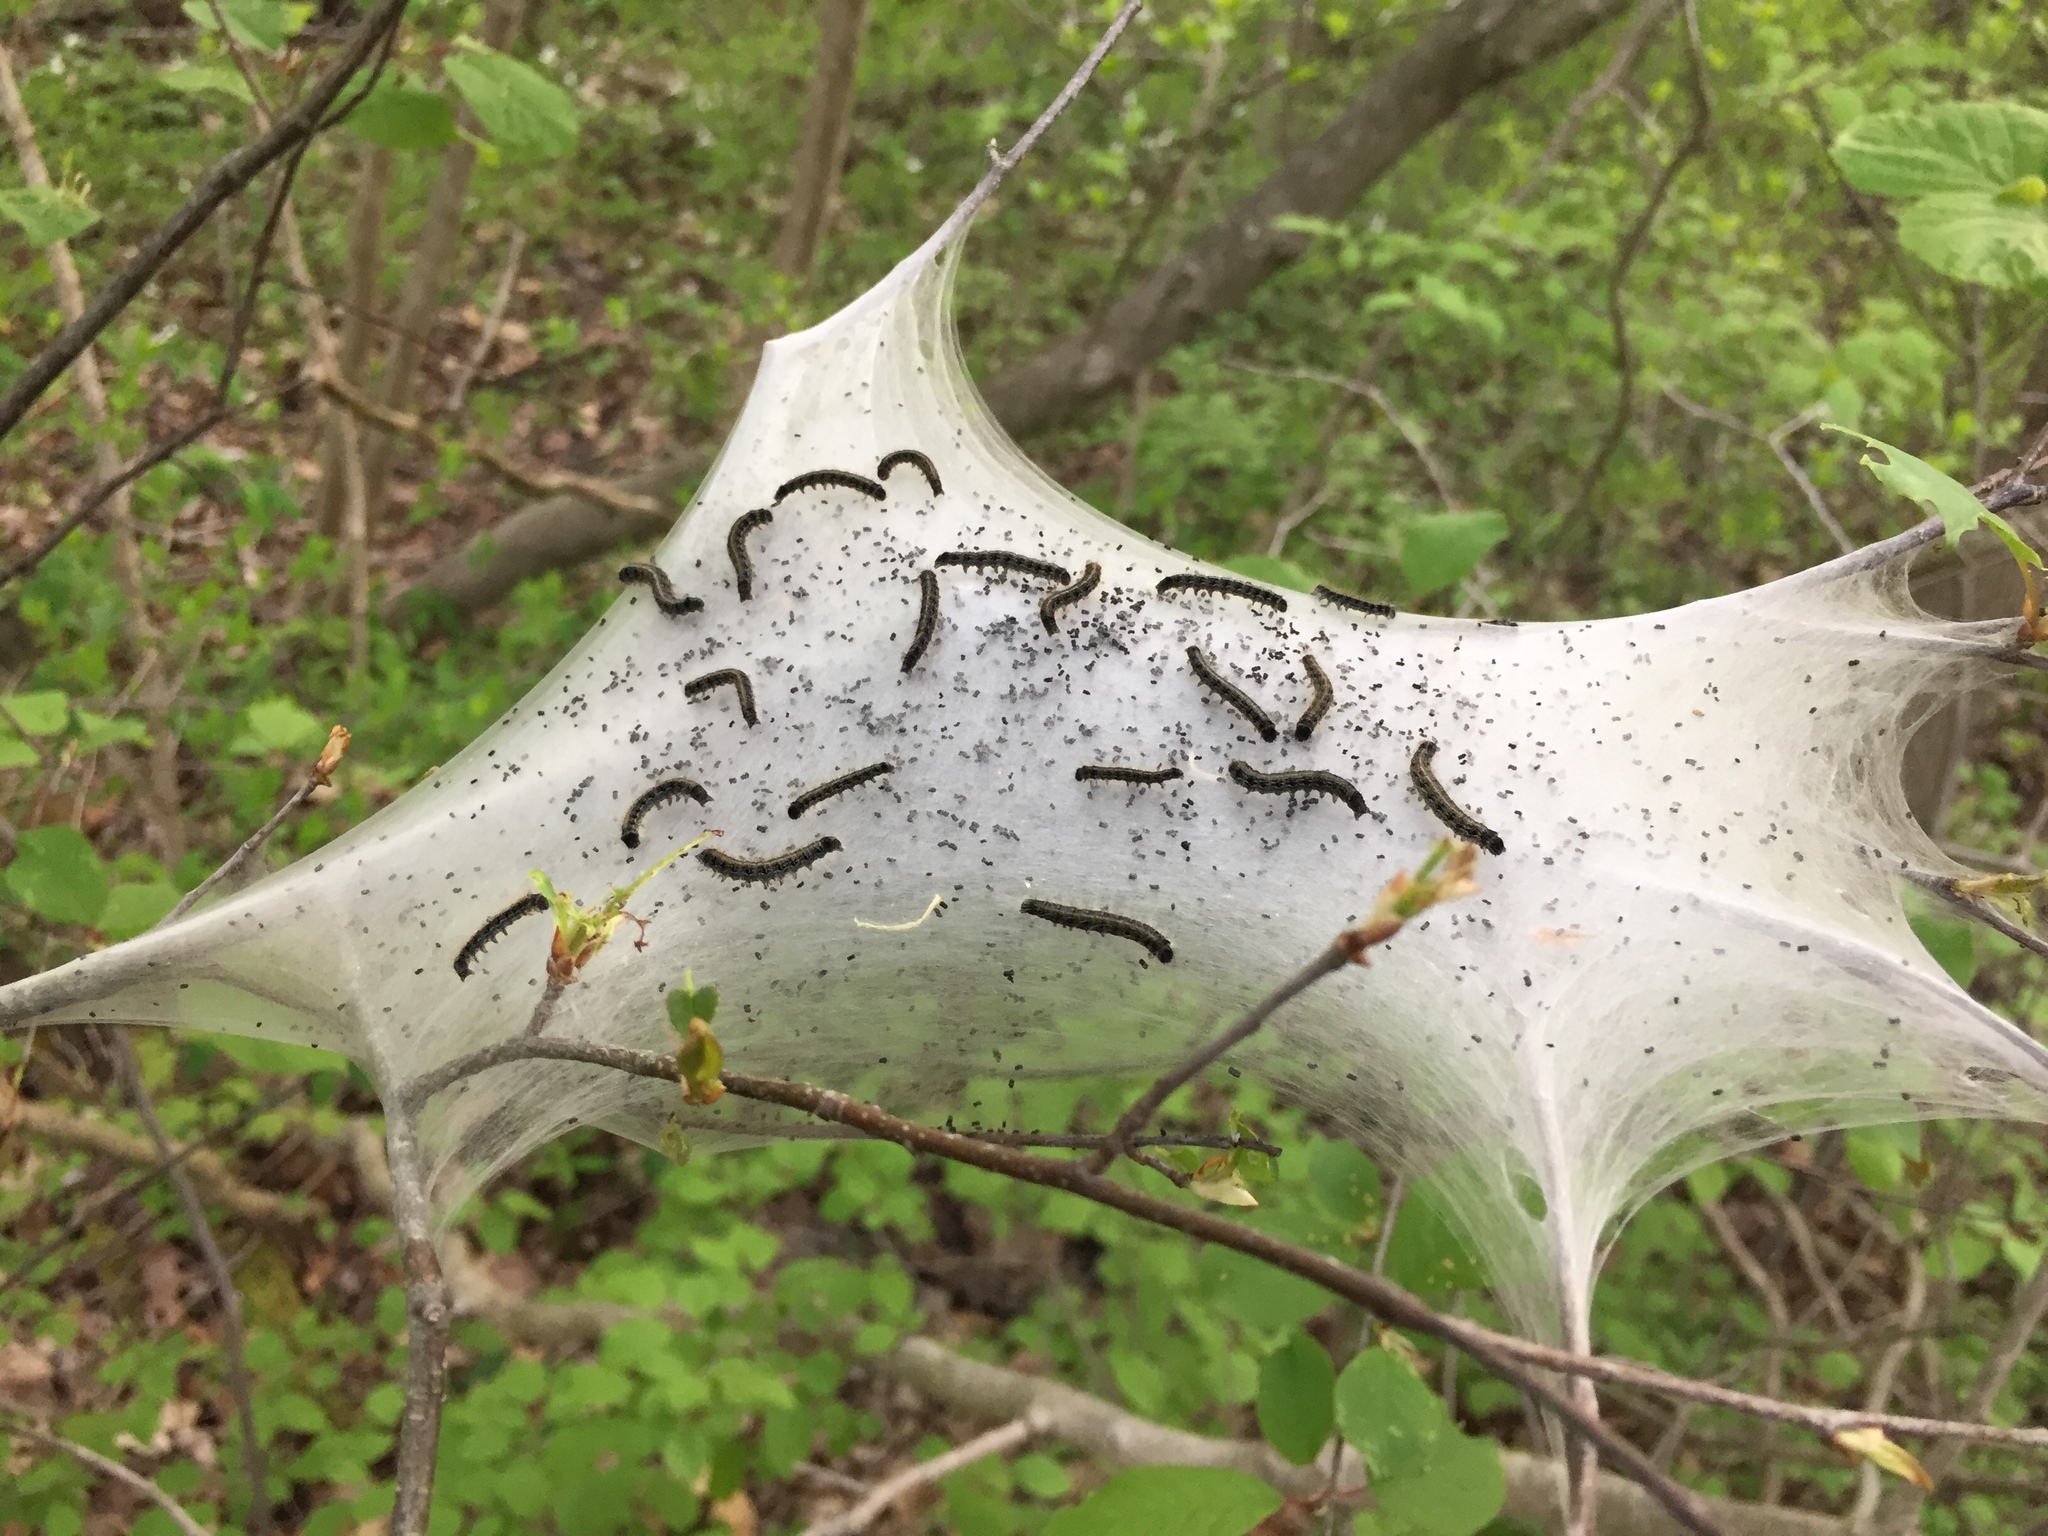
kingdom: Animalia
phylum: Arthropoda
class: Insecta
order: Lepidoptera
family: Lasiocampidae
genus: Malacosoma
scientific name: Malacosoma americana
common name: Eastern tent caterpillar moth
